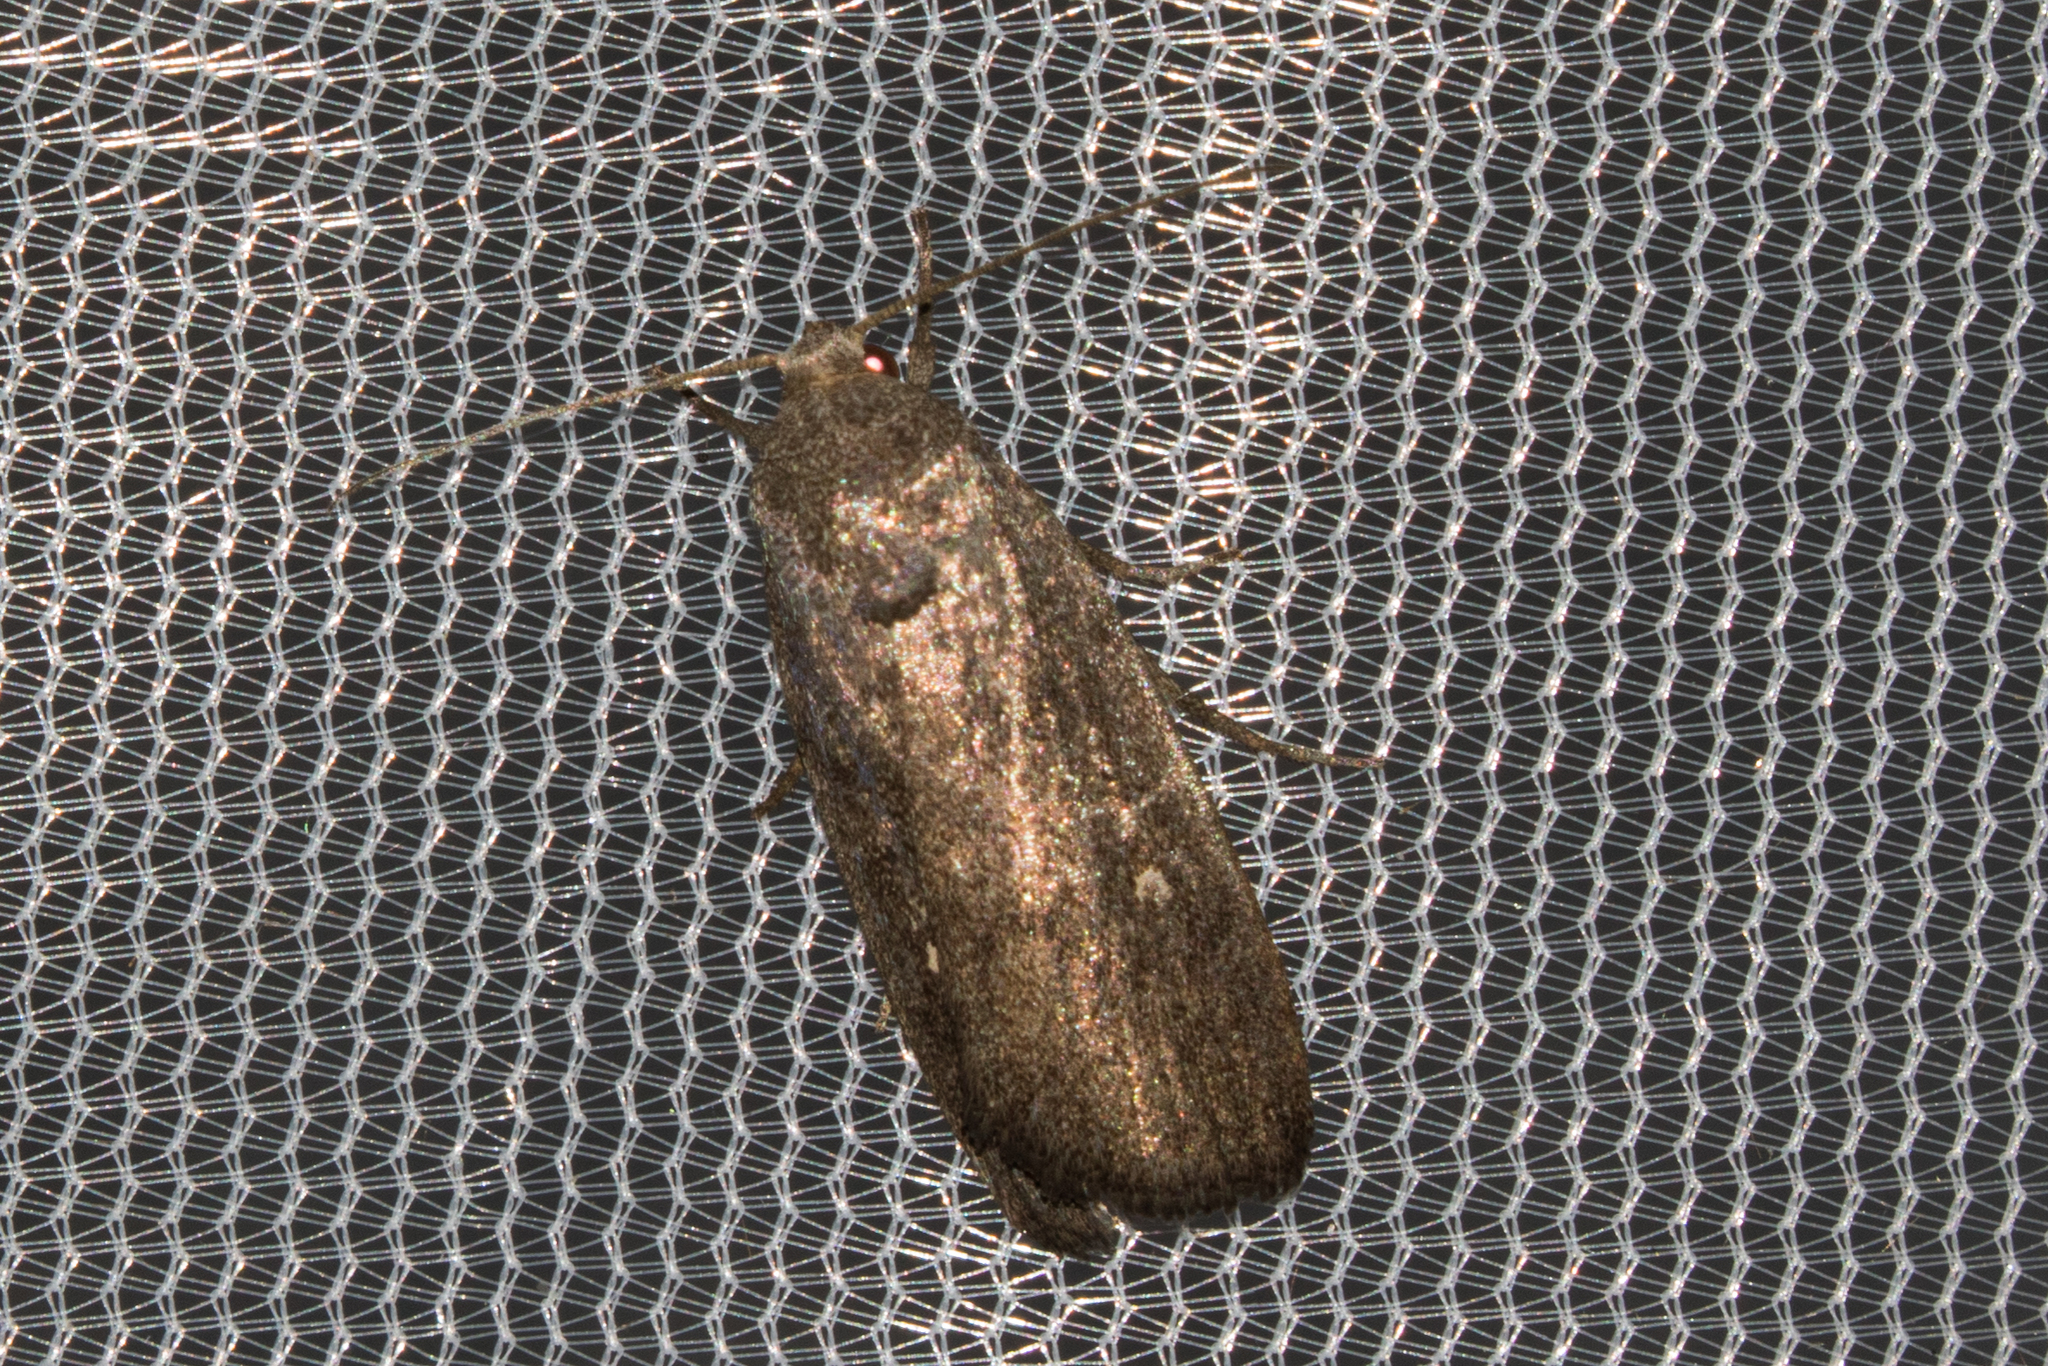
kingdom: Animalia
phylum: Arthropoda
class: Insecta
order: Lepidoptera
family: Noctuidae
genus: Proxenus
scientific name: Proxenus miranda
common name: Miranda moth
